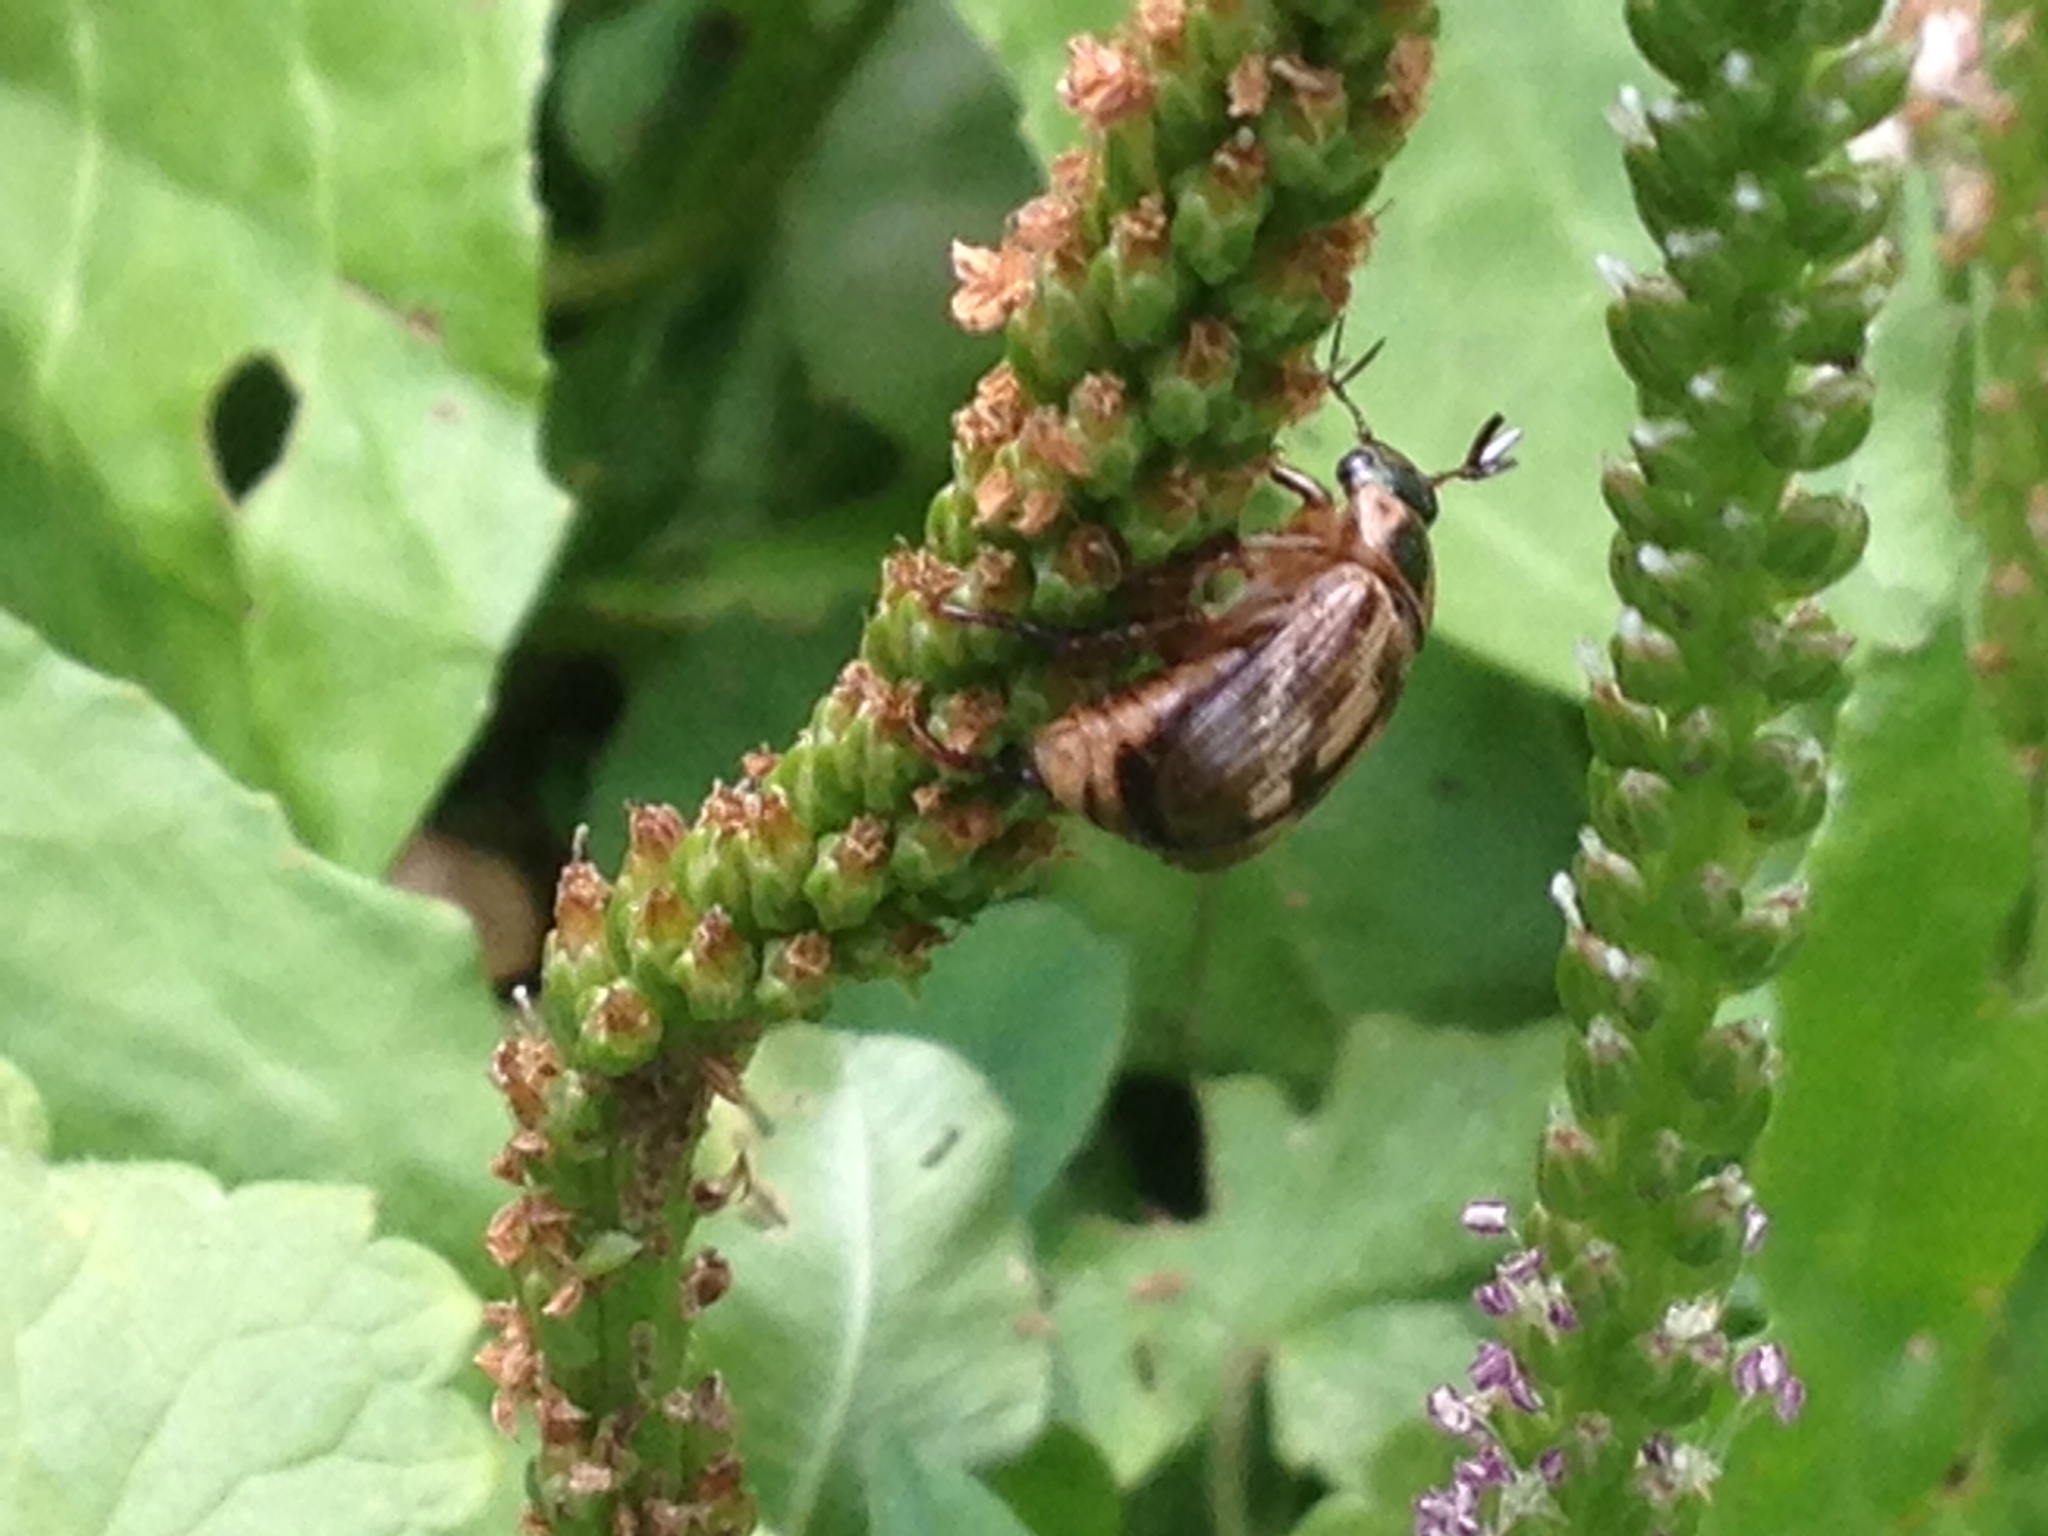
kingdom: Animalia
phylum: Arthropoda
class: Insecta
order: Coleoptera
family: Scarabaeidae
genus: Exomala
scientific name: Exomala orientalis
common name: Oriental beetle
